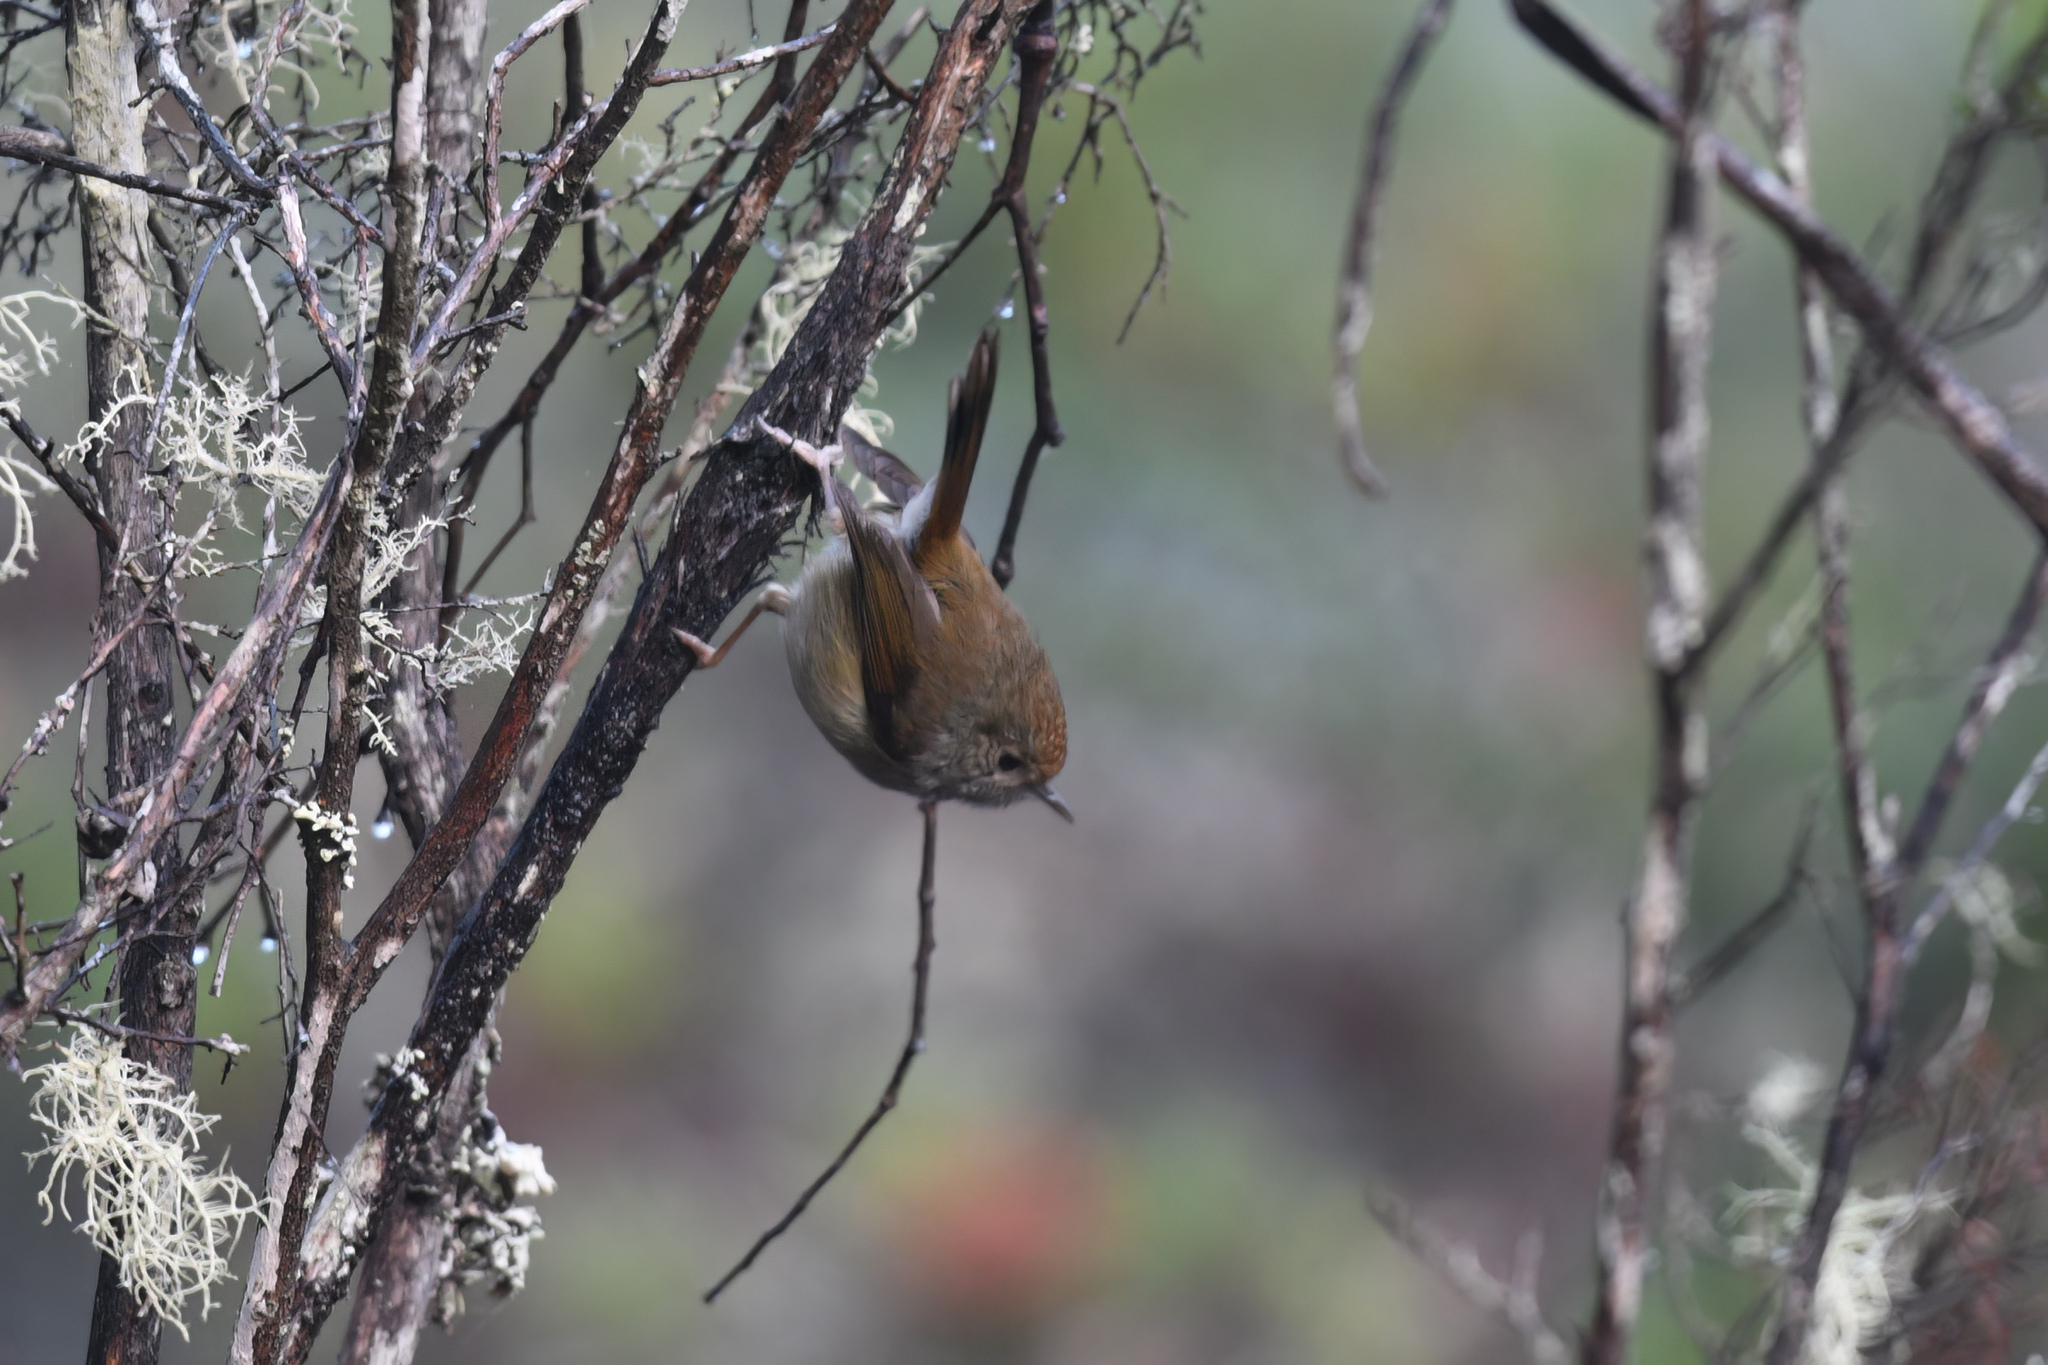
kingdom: Animalia
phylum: Chordata
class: Aves
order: Passeriformes
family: Acanthizidae
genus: Acanthiza
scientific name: Acanthiza ewingii
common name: Tasmanian thornbill
